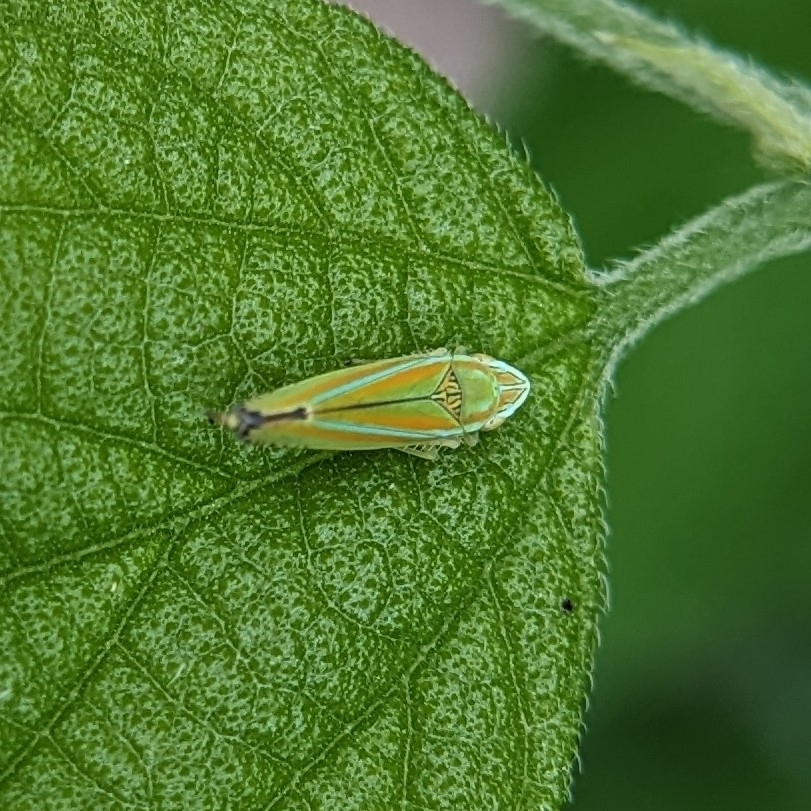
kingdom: Animalia
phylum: Arthropoda
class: Insecta
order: Hemiptera
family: Cicadellidae
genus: Graphocephala
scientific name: Graphocephala versuta
